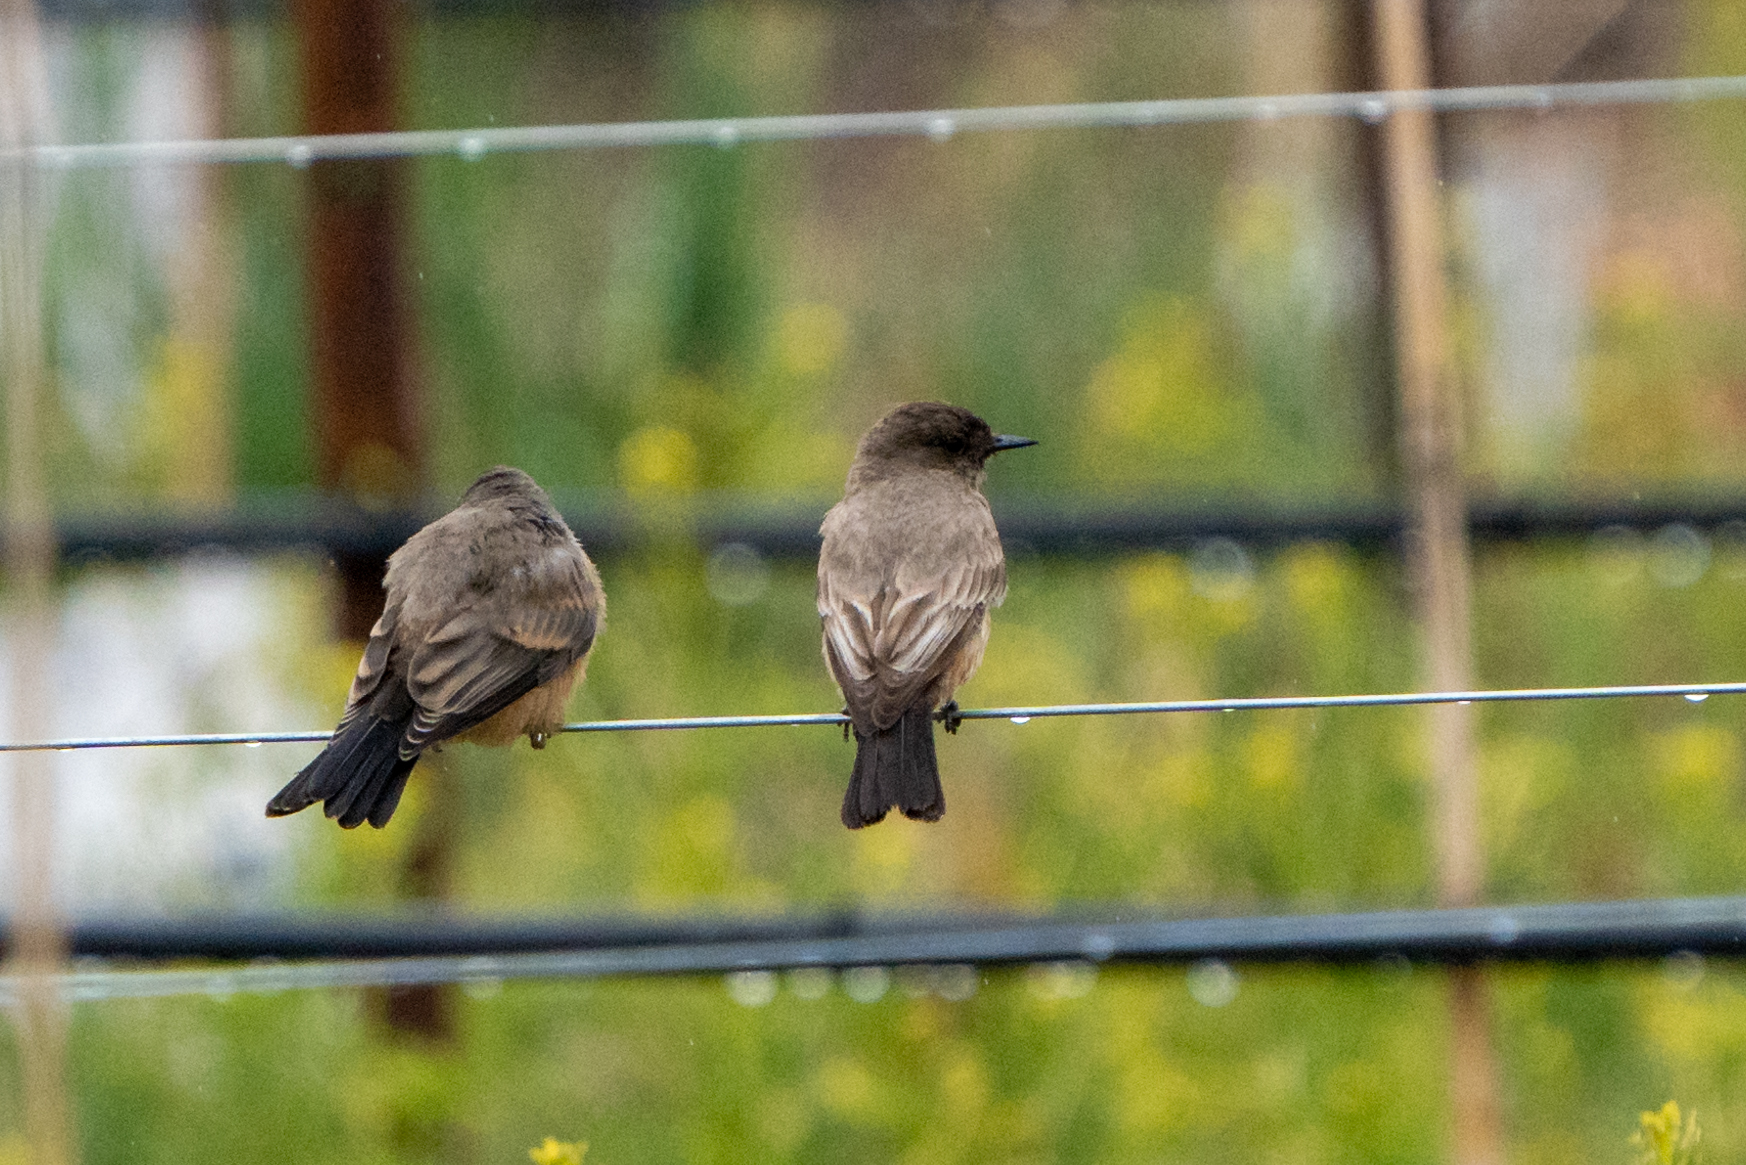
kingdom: Animalia
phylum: Chordata
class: Aves
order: Passeriformes
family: Tyrannidae
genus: Sayornis
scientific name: Sayornis saya
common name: Say's phoebe
